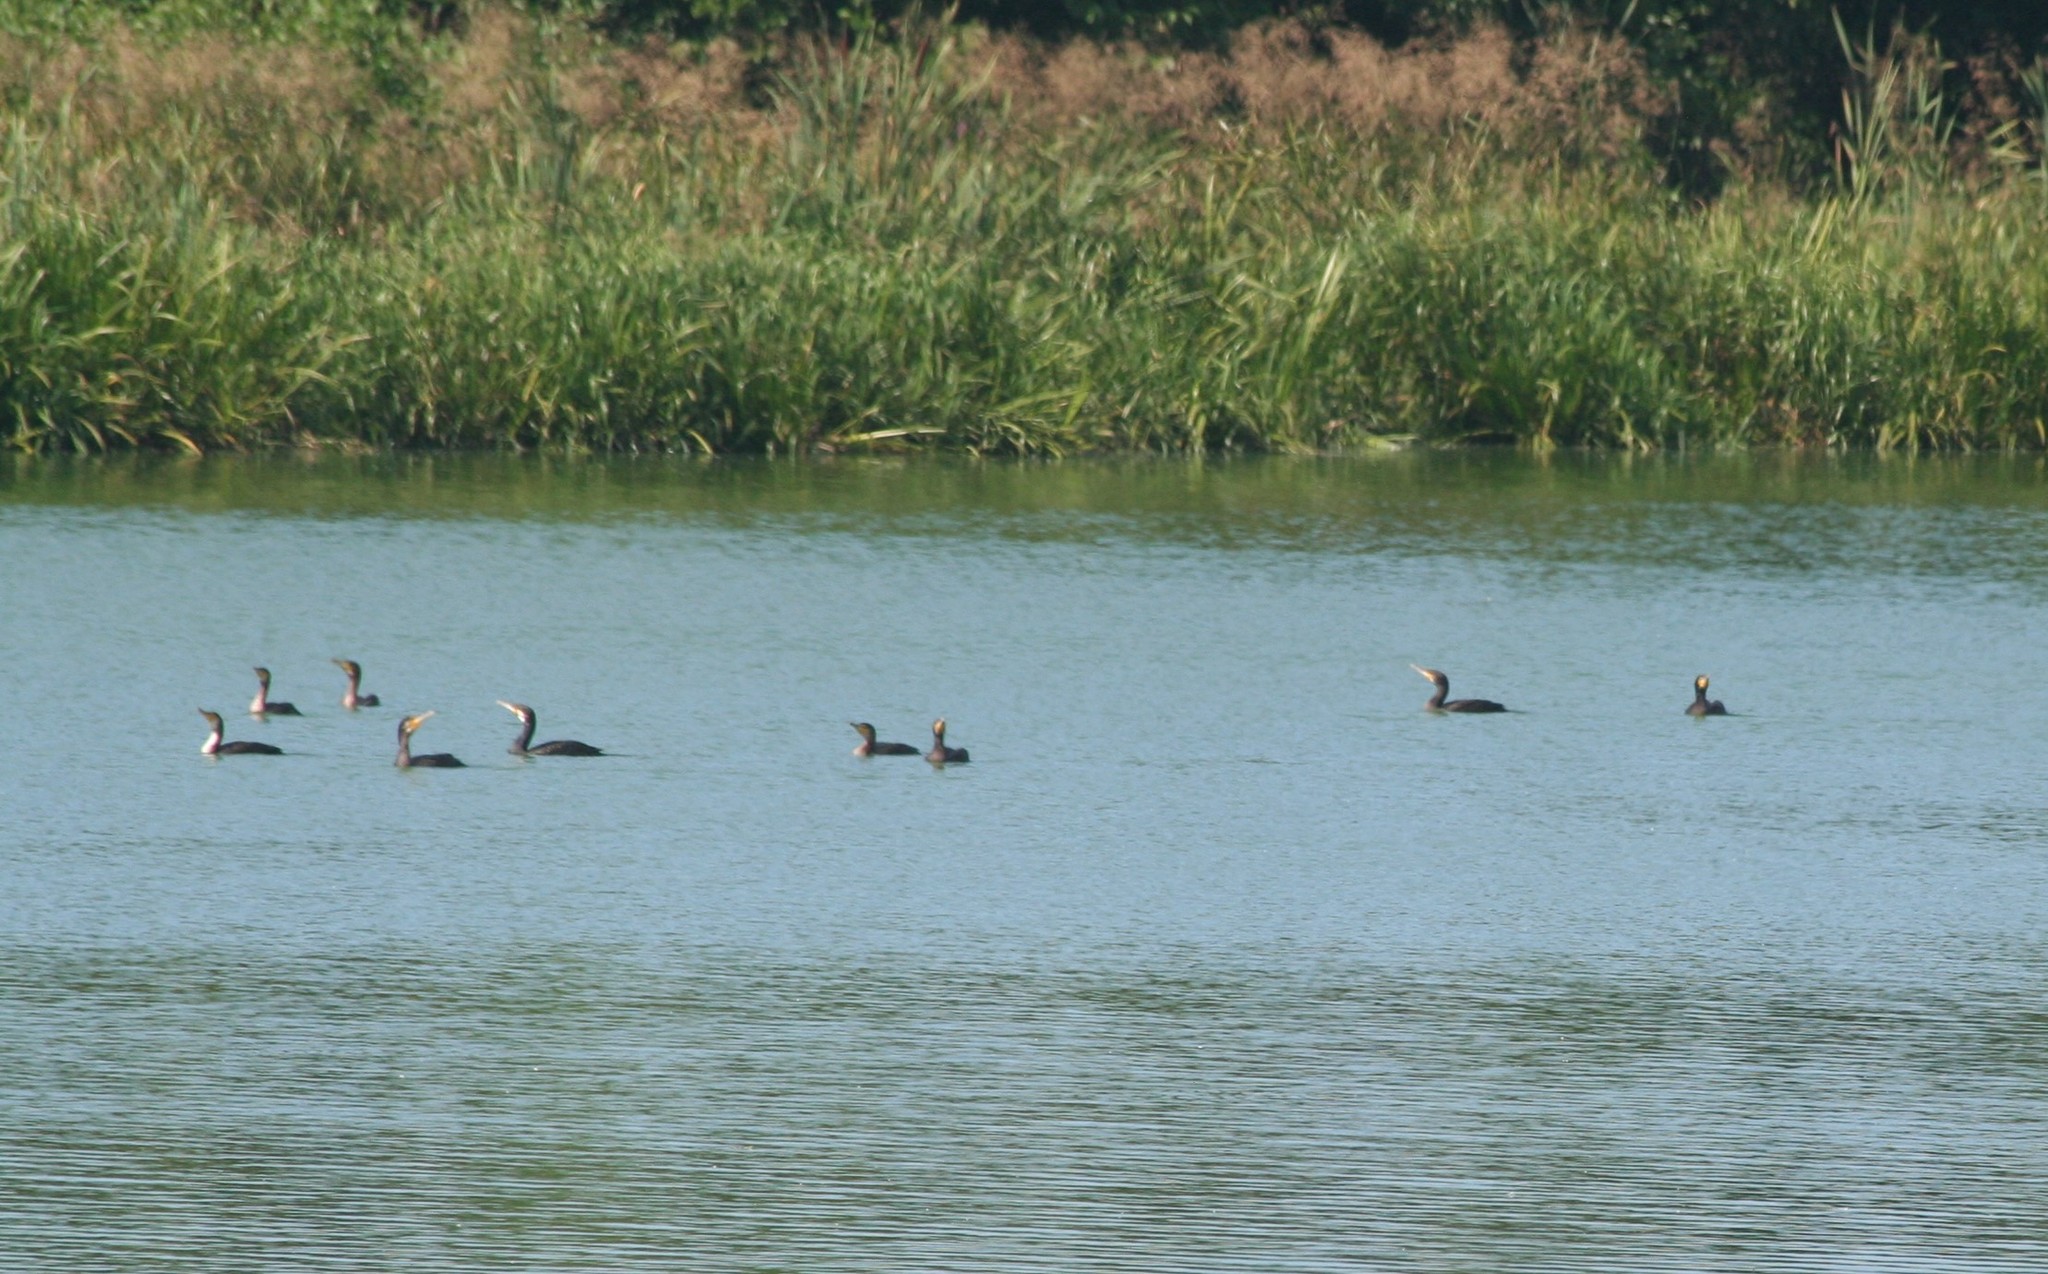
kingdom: Animalia
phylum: Chordata
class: Aves
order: Suliformes
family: Phalacrocoracidae
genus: Phalacrocorax
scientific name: Phalacrocorax carbo
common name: Great cormorant
